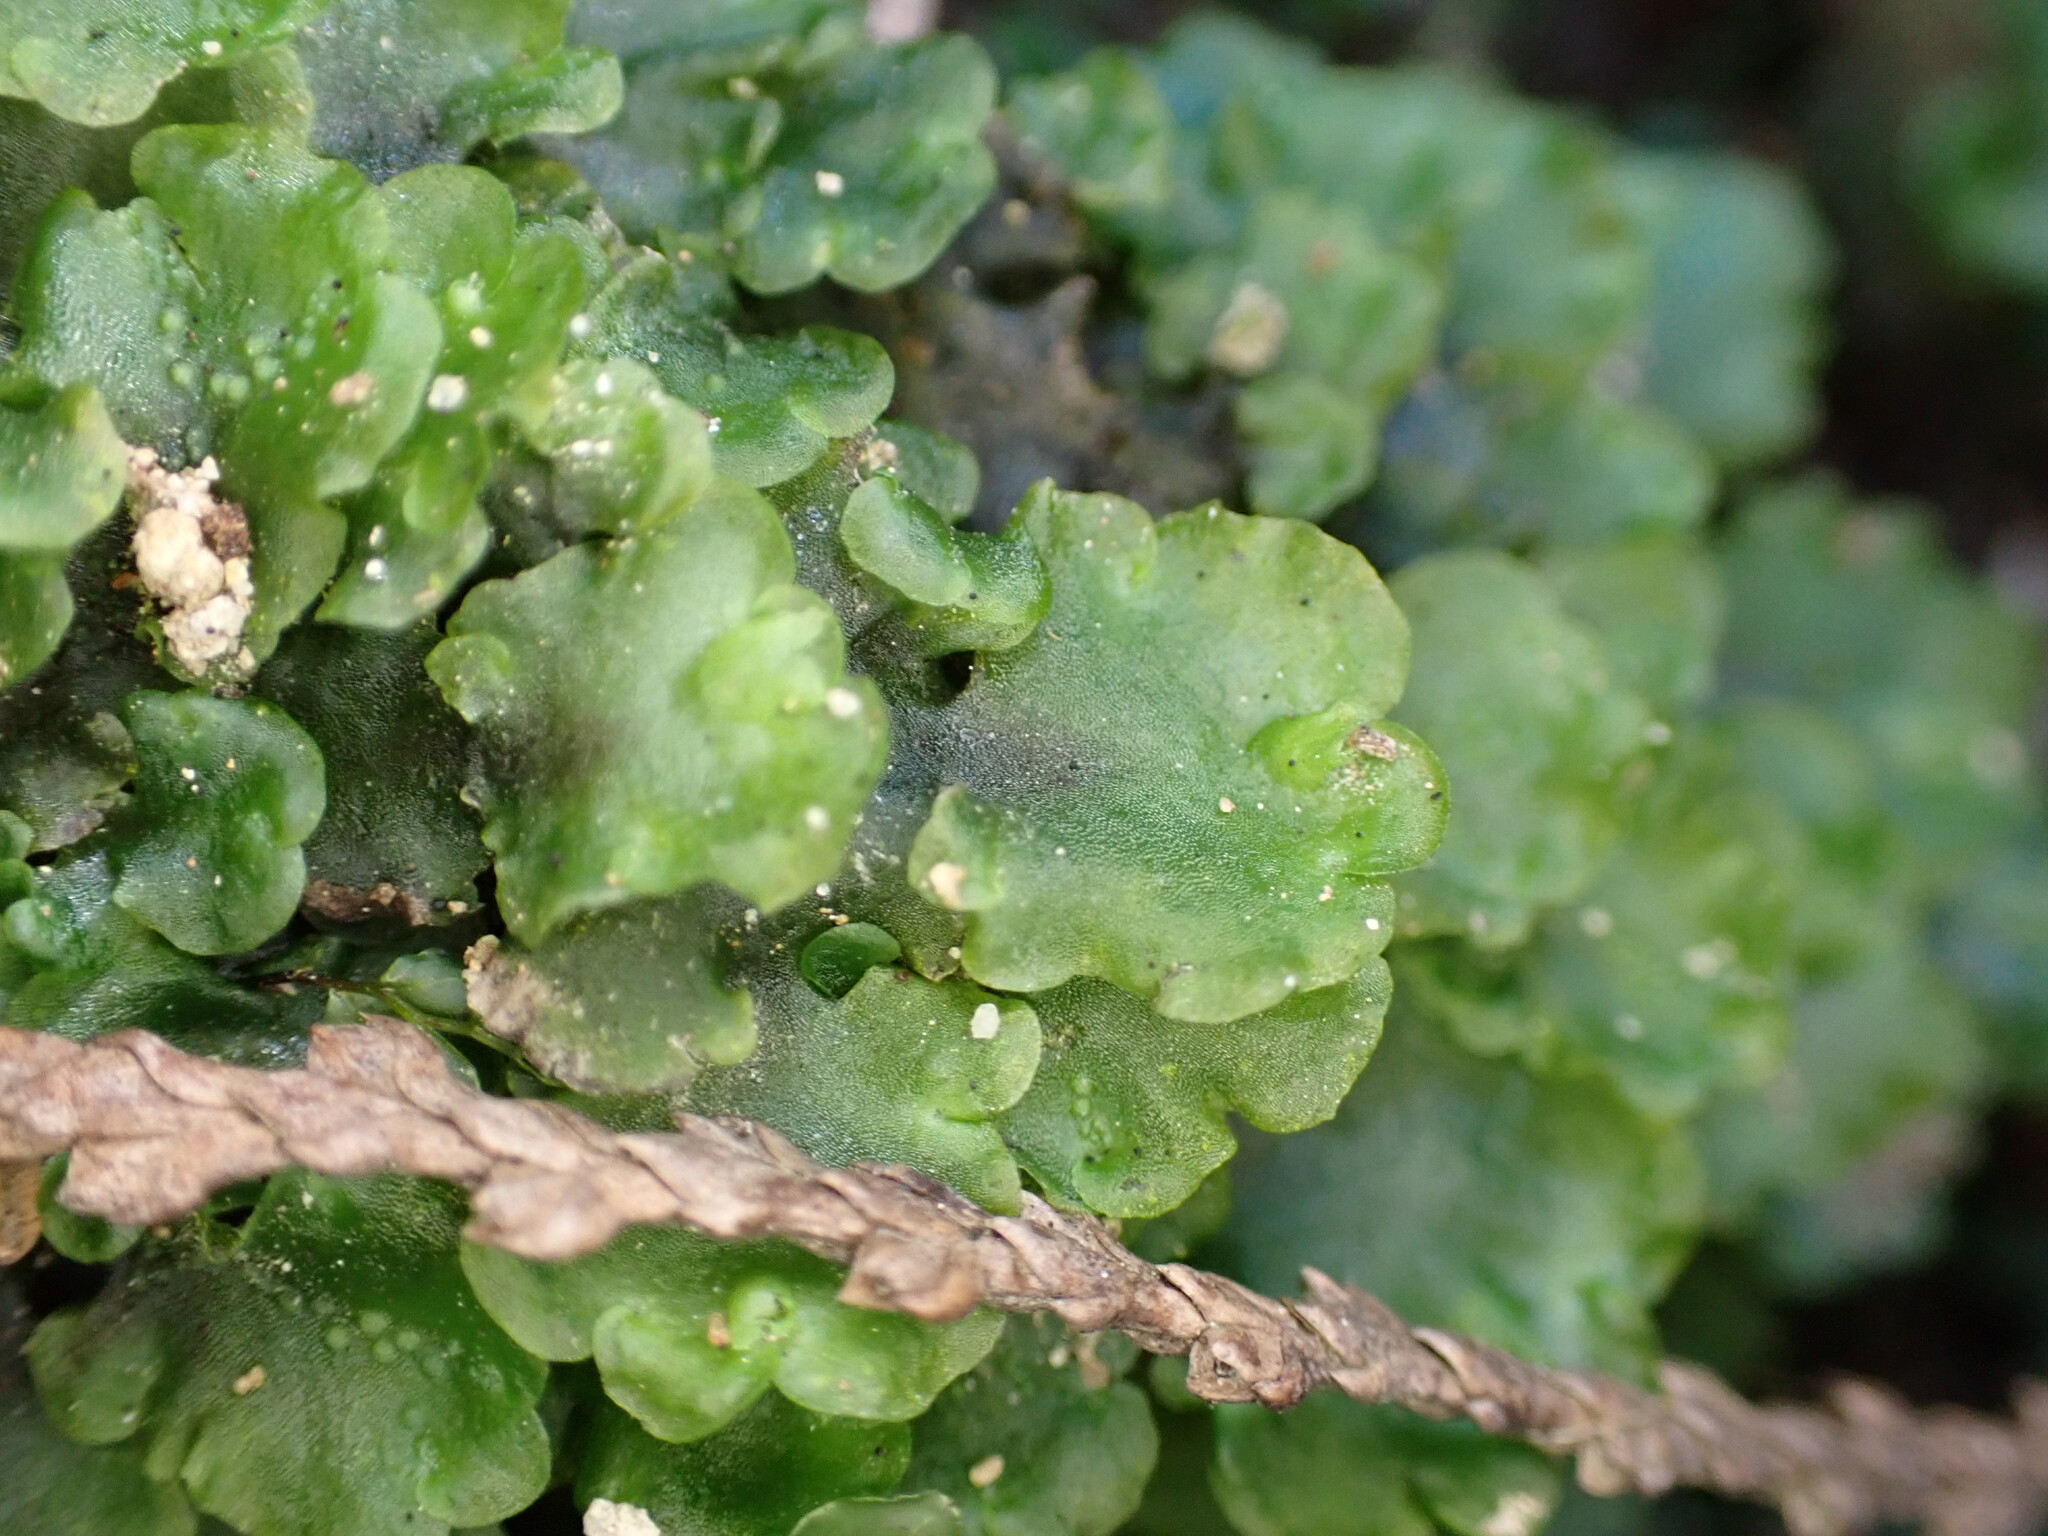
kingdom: Plantae
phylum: Marchantiophyta
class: Jungermanniopsida
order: Pelliales
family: Pelliaceae
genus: Pellia
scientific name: Pellia neesiana
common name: Nees  pellia
